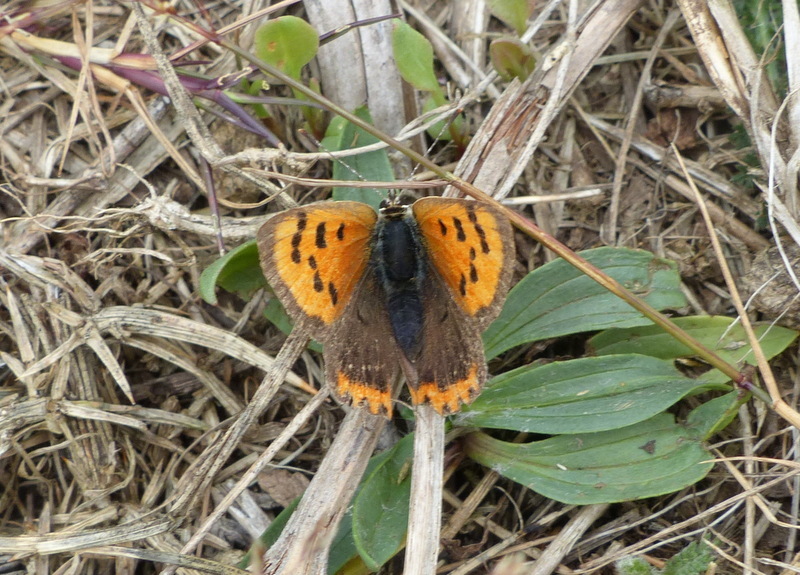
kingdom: Animalia
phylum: Arthropoda
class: Insecta
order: Lepidoptera
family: Lycaenidae
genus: Lycaena
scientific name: Lycaena phlaeas
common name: Small copper
